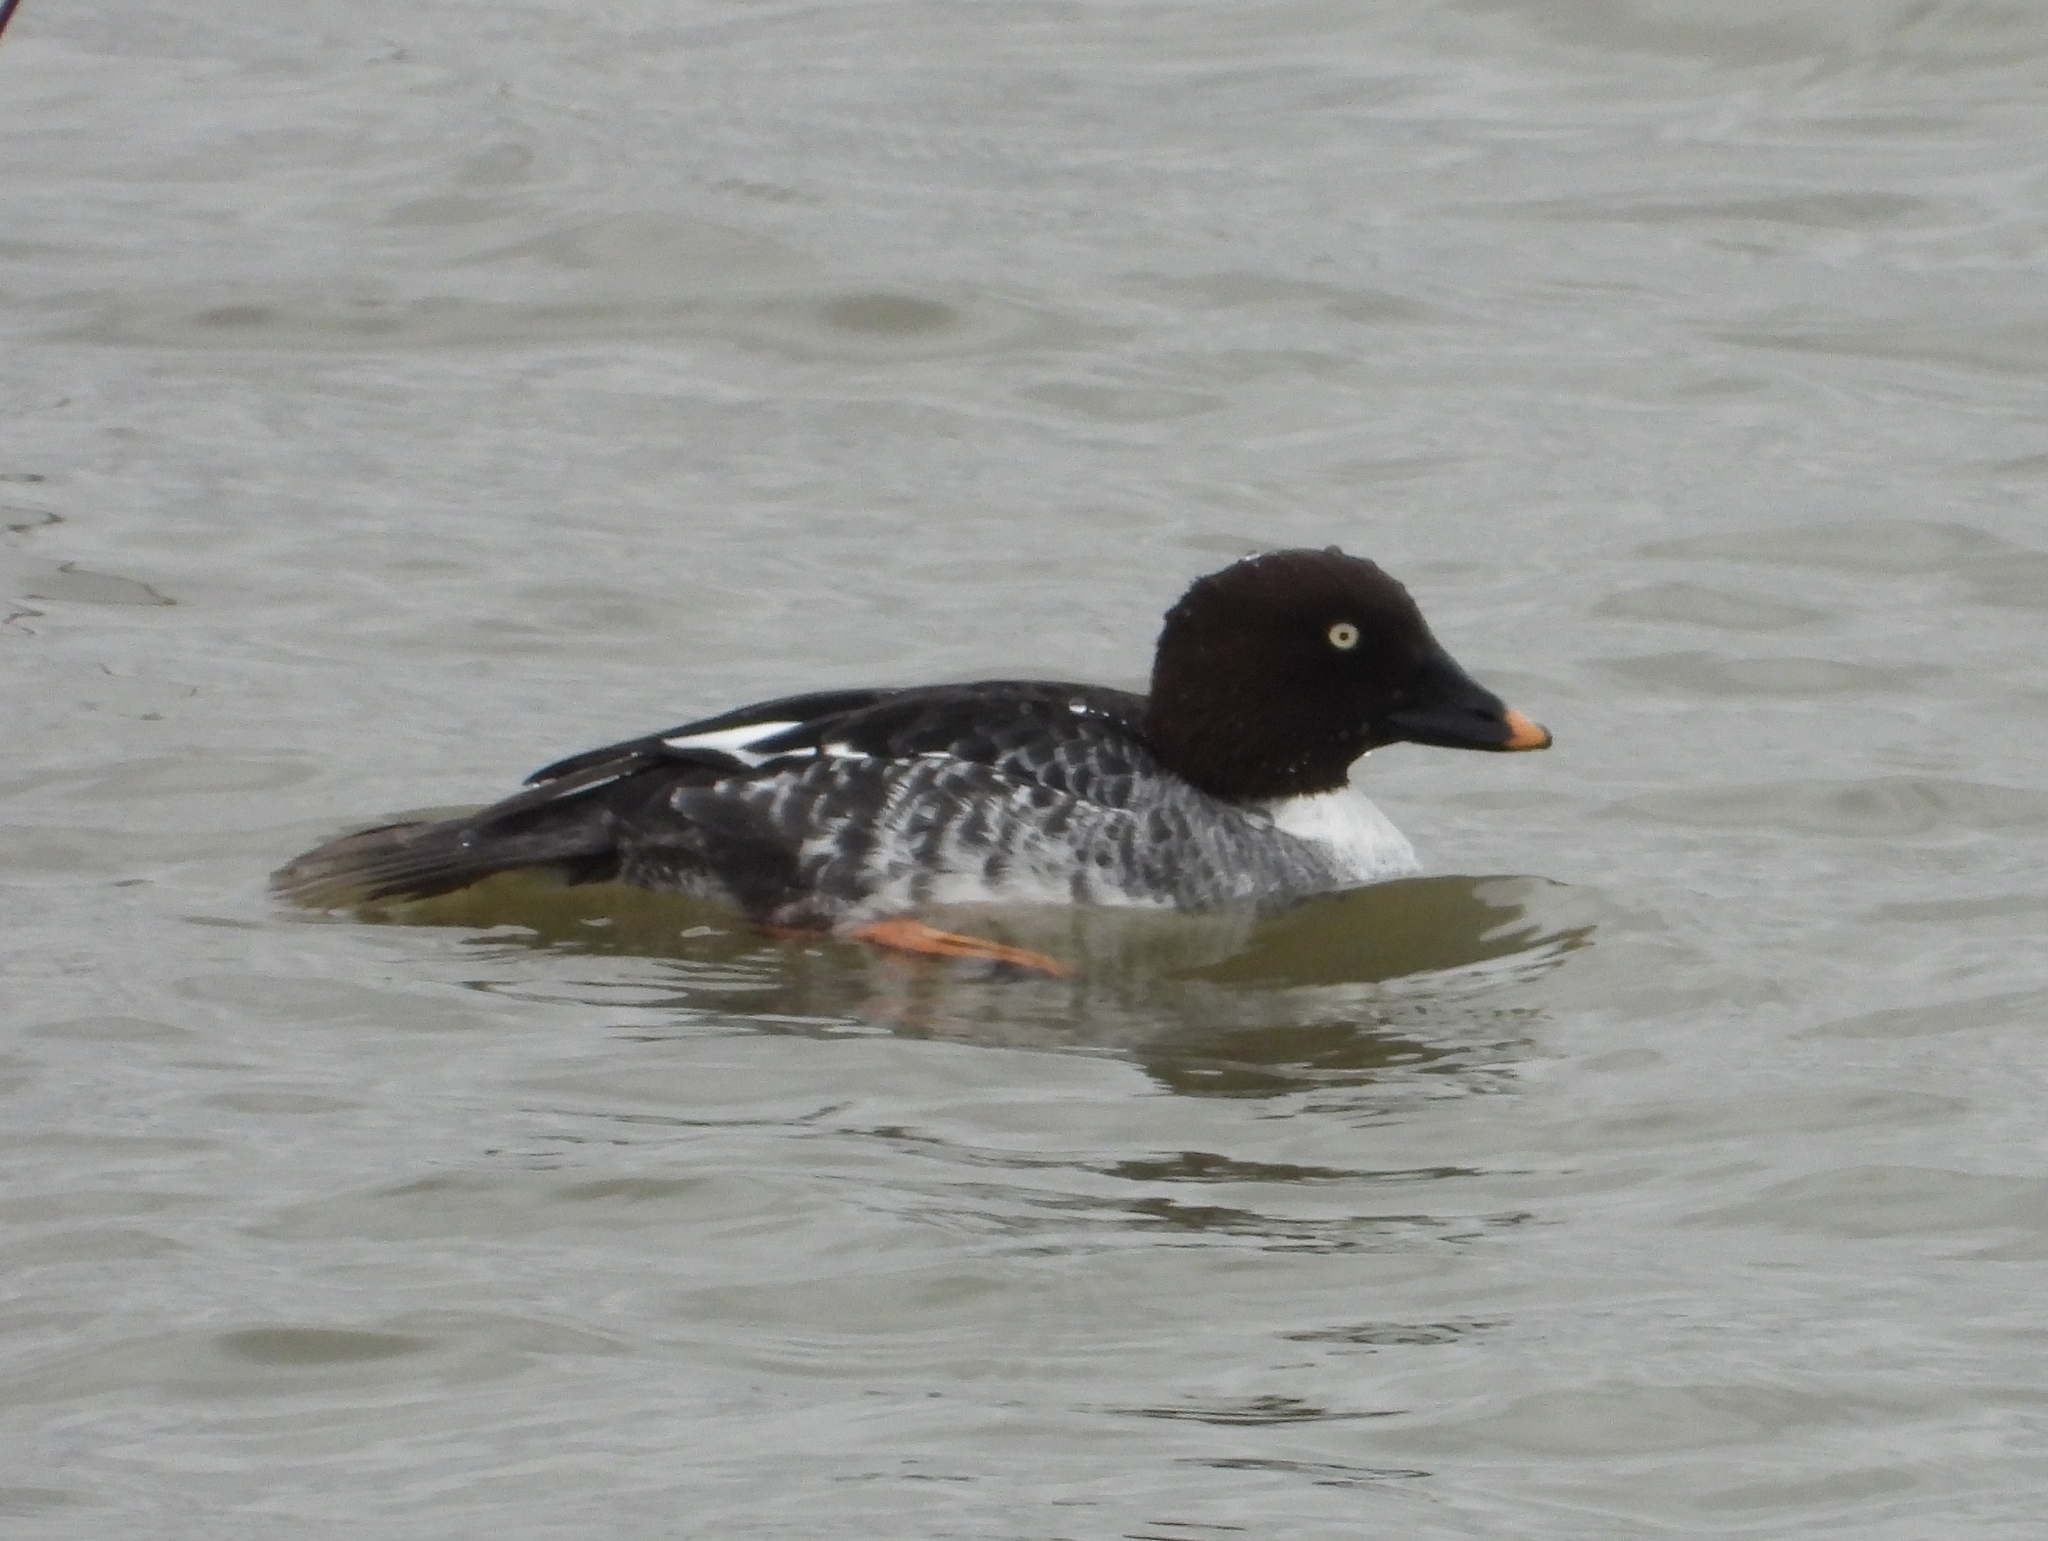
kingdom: Animalia
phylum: Chordata
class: Aves
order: Anseriformes
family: Anatidae
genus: Bucephala
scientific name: Bucephala clangula
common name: Common goldeneye
